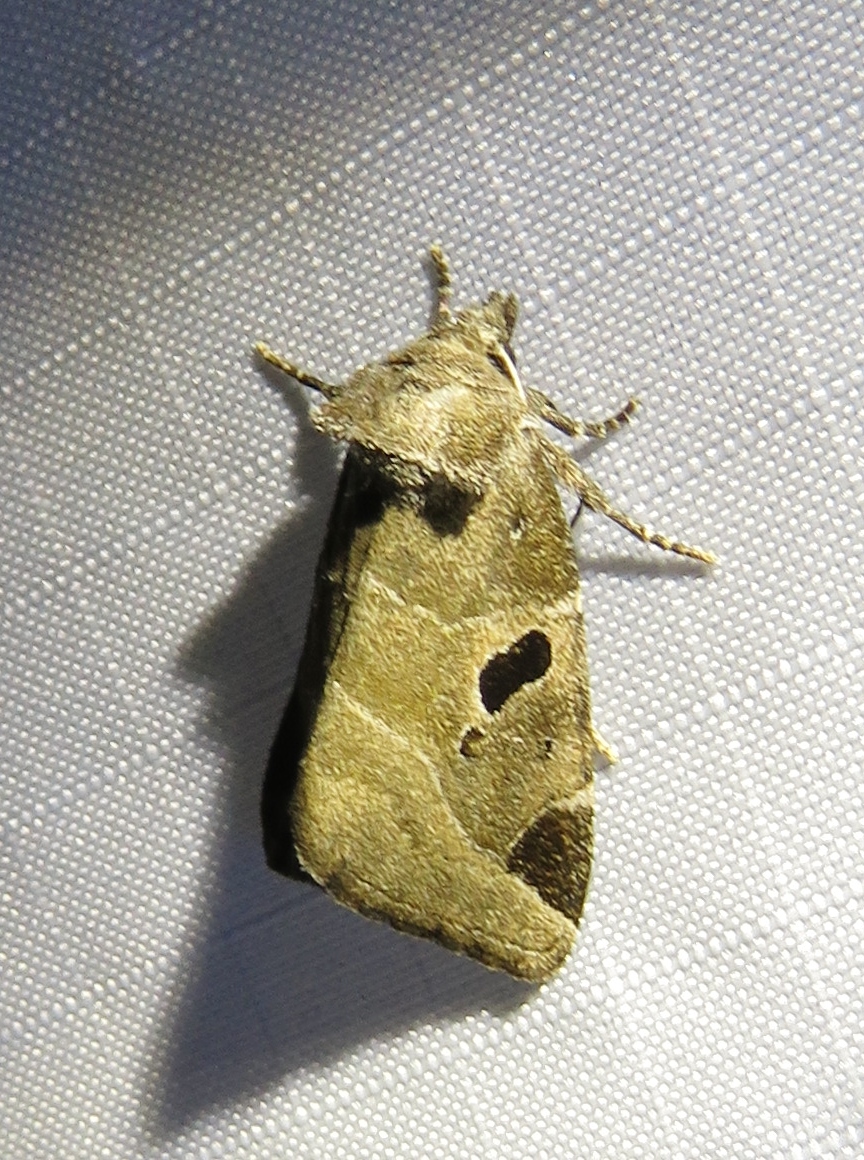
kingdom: Animalia
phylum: Arthropoda
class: Insecta
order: Lepidoptera
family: Noctuidae
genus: Plagiomimicus
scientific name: Plagiomimicus pityochromus
